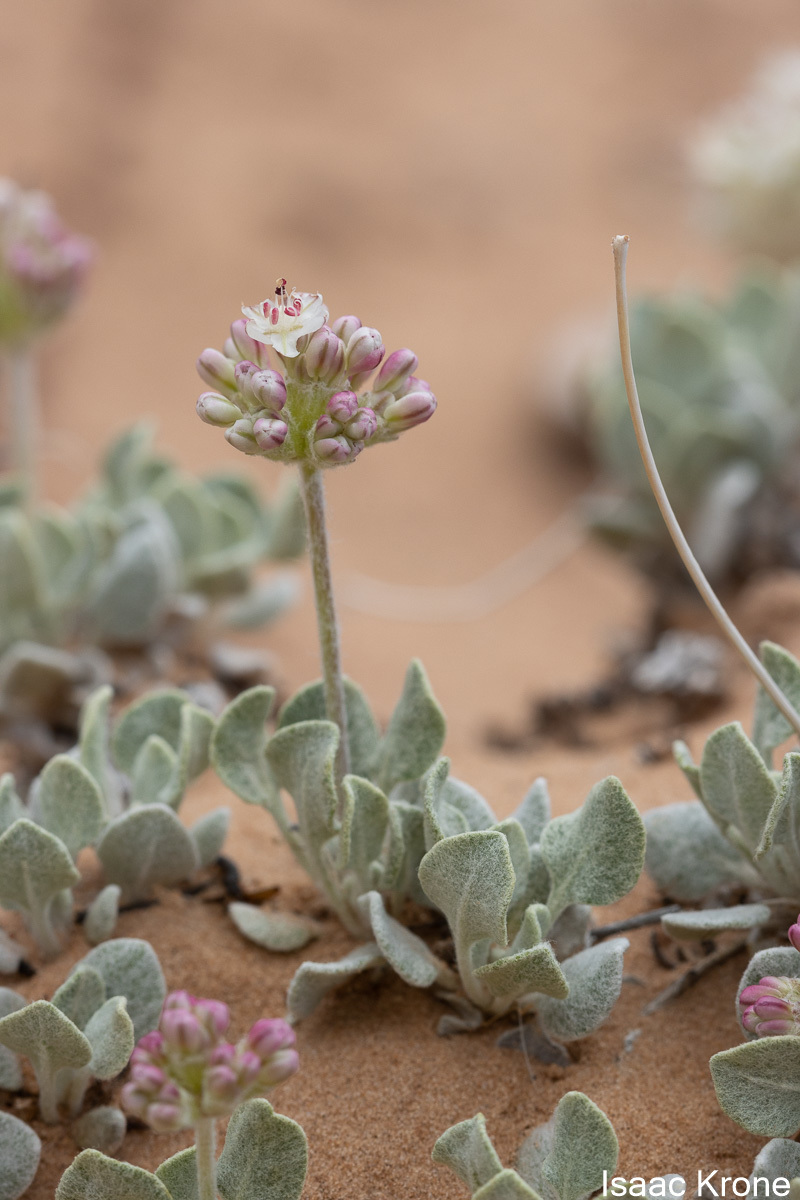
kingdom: Plantae
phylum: Tracheophyta
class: Magnoliopsida
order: Caryophyllales
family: Polygonaceae
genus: Eriogonum
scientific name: Eriogonum ovalifolium
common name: Cushion buckwheat
